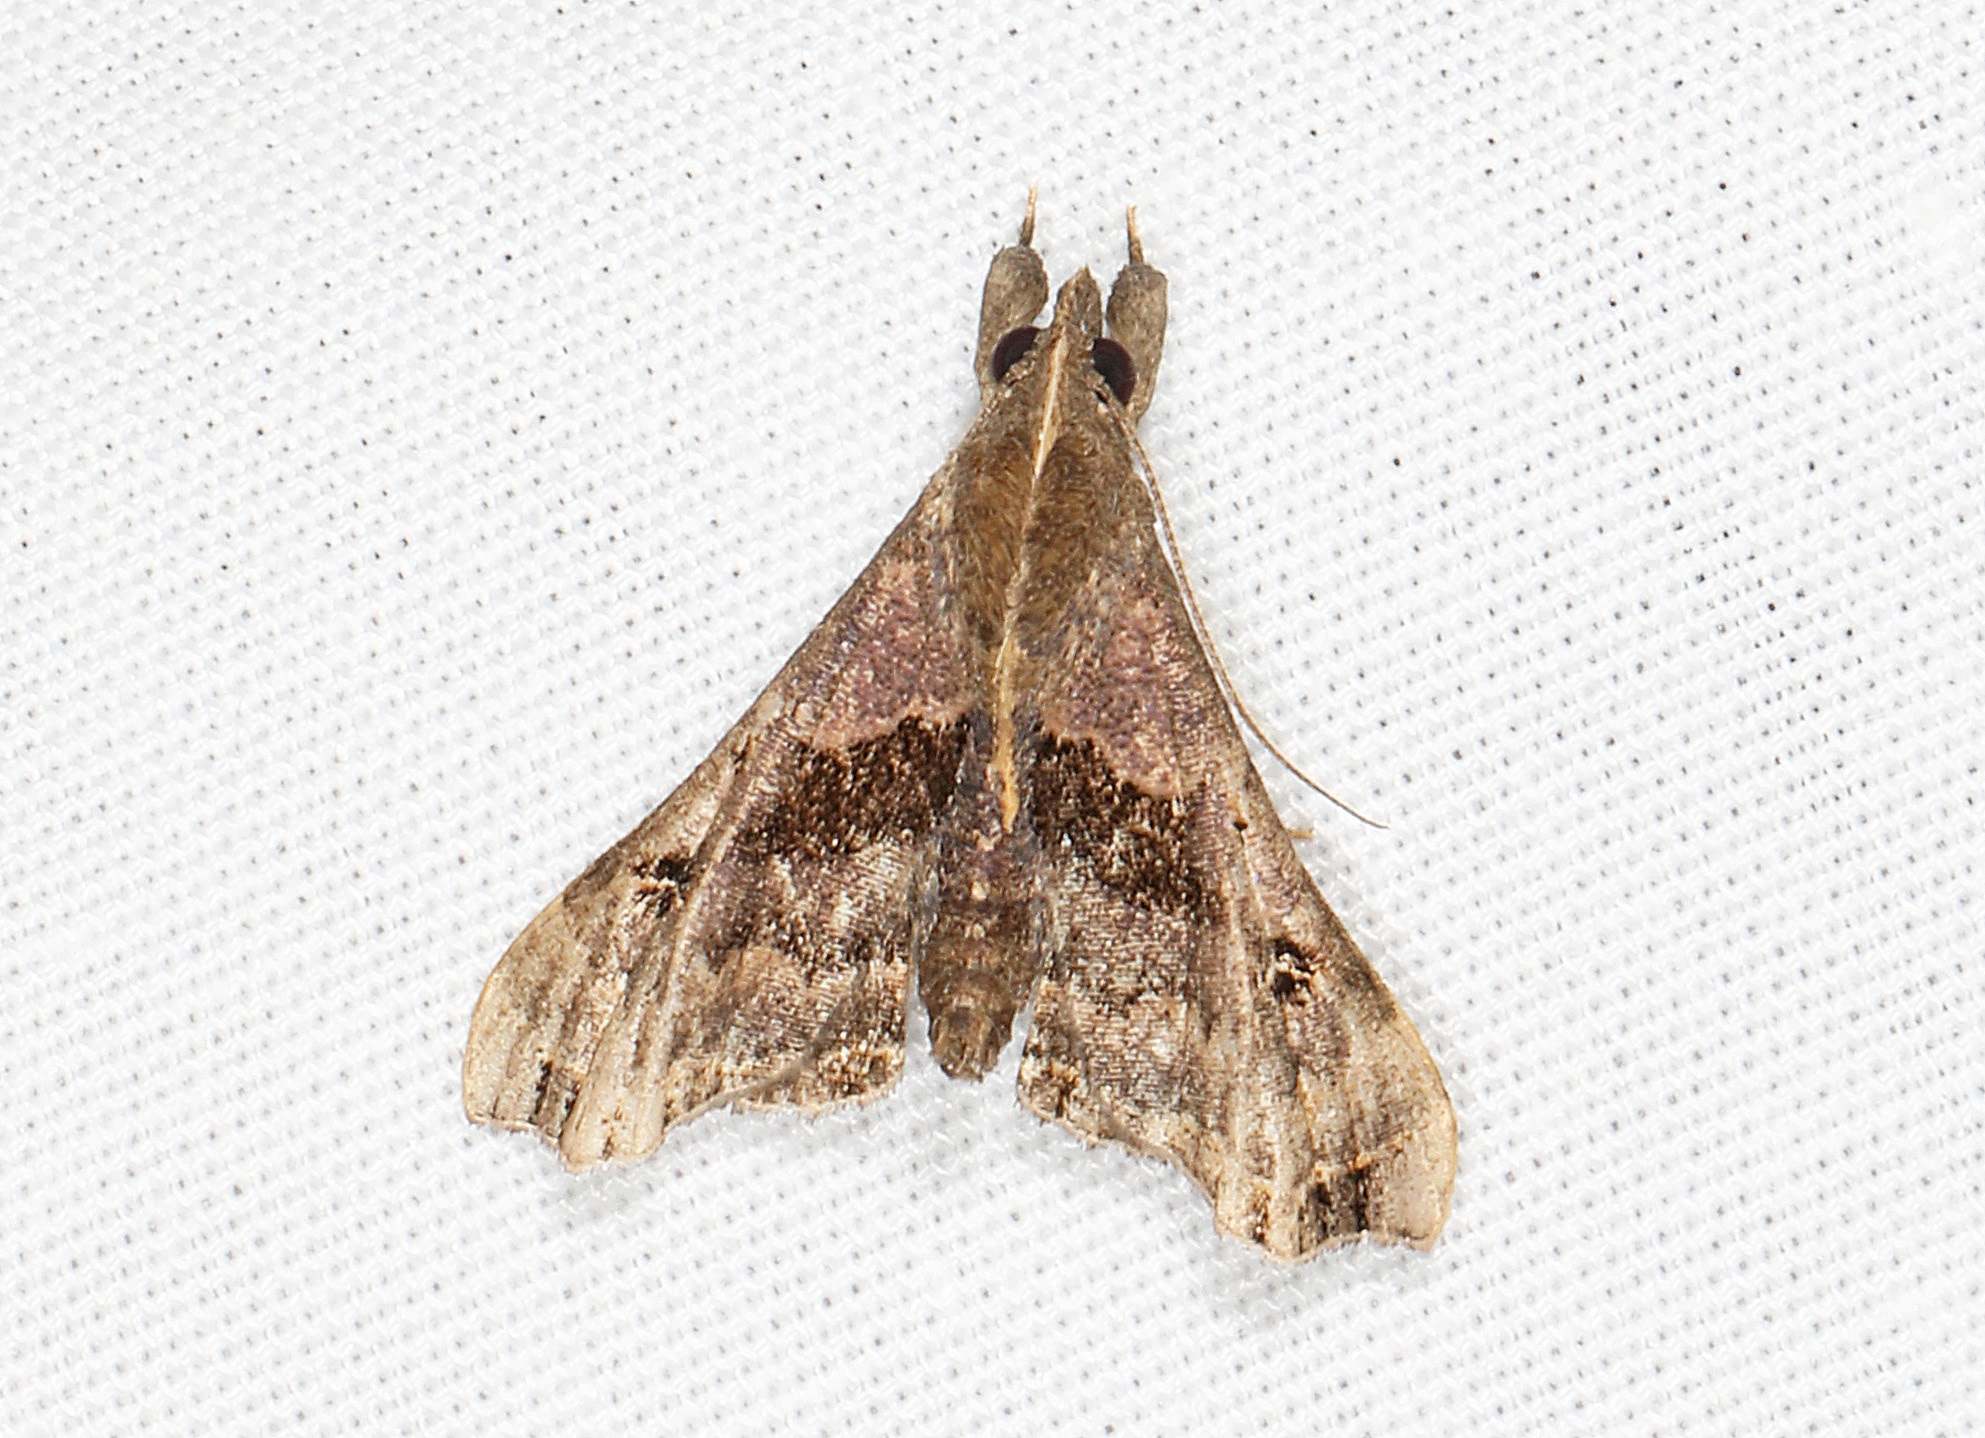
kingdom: Animalia
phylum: Arthropoda
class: Insecta
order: Lepidoptera
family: Erebidae
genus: Palthis
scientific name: Palthis asopialis
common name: Faint-spotted palthis moth
